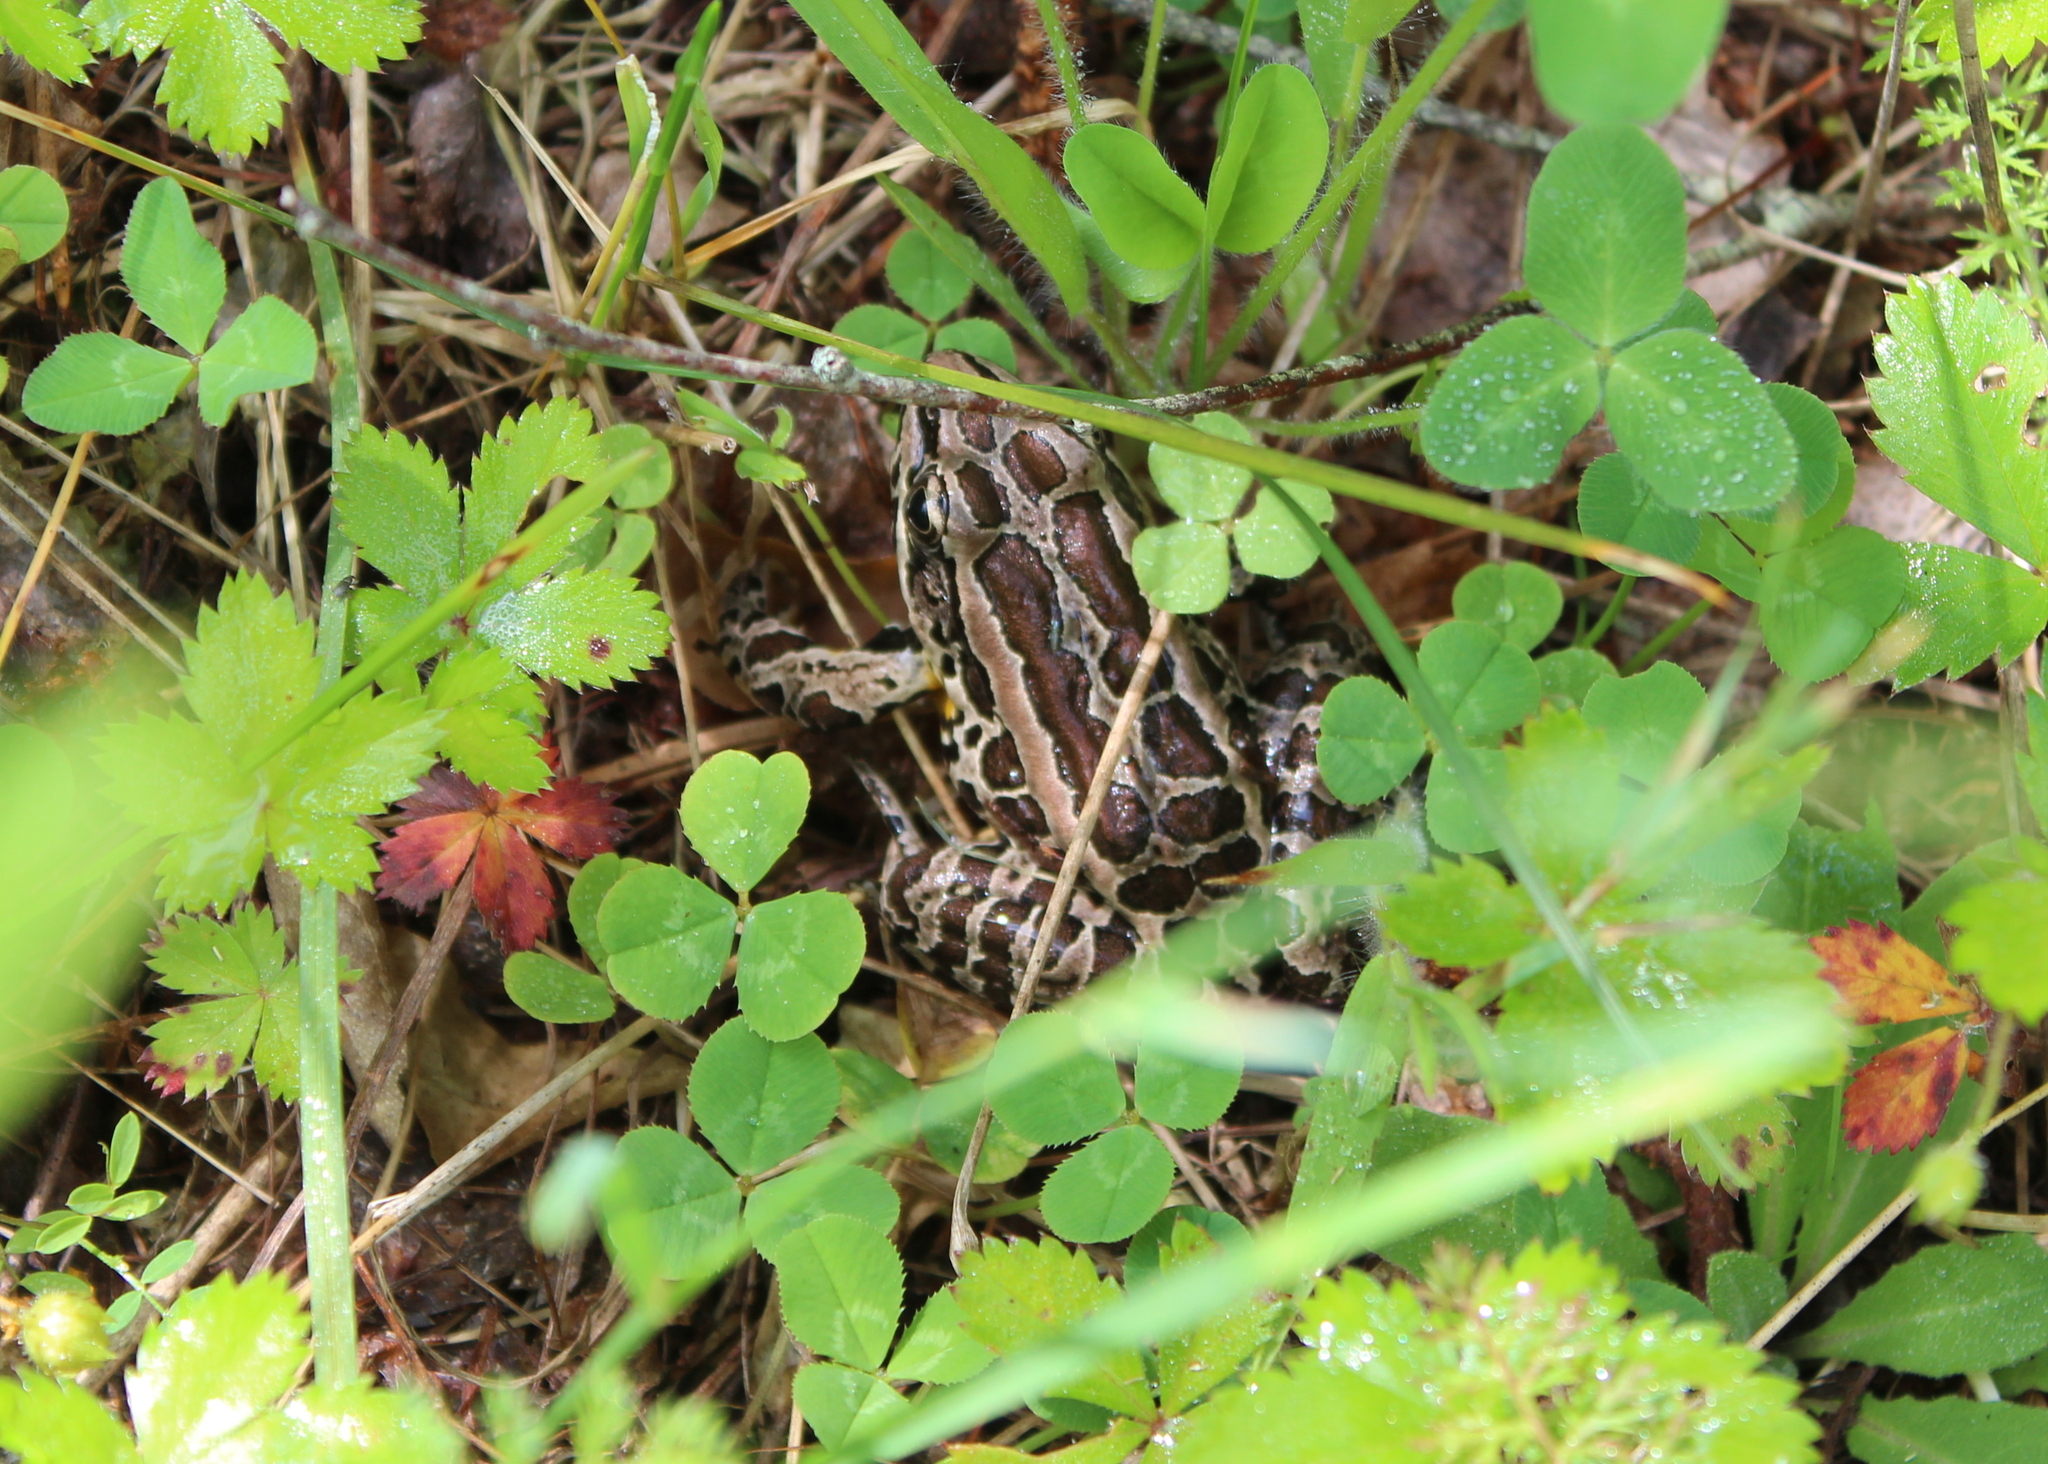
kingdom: Animalia
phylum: Chordata
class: Amphibia
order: Anura
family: Ranidae
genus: Lithobates
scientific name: Lithobates palustris
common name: Pickerel frog
